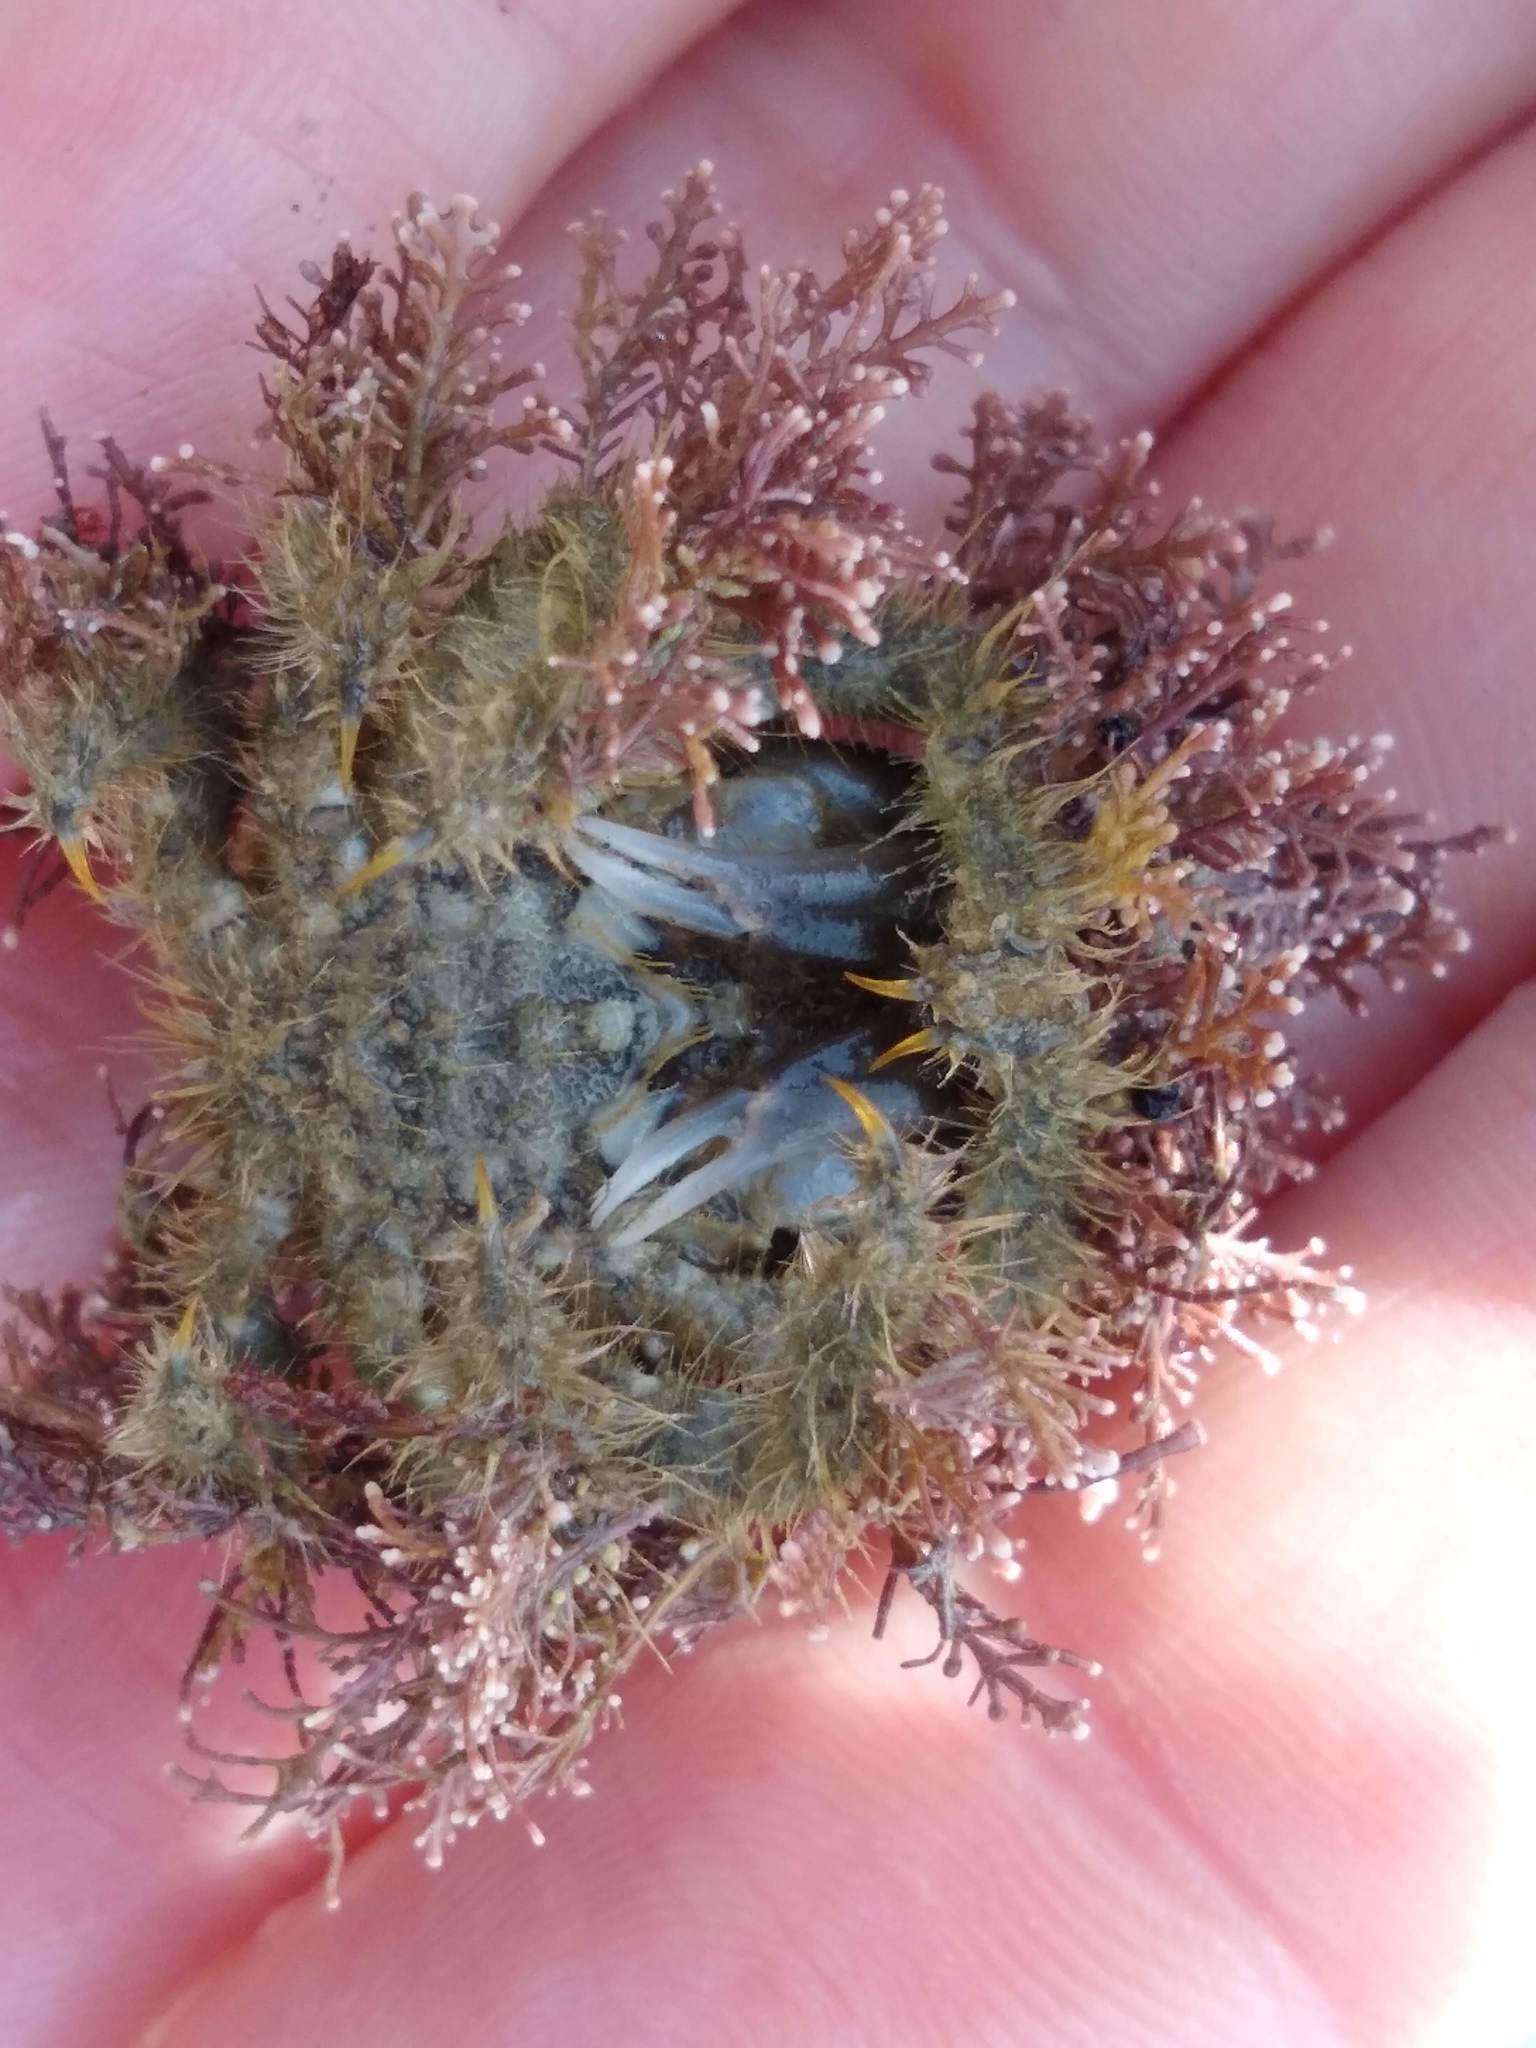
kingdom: Animalia
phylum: Arthropoda
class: Malacostraca
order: Decapoda
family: Majidae
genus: Notomithrax
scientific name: Notomithrax ursus
